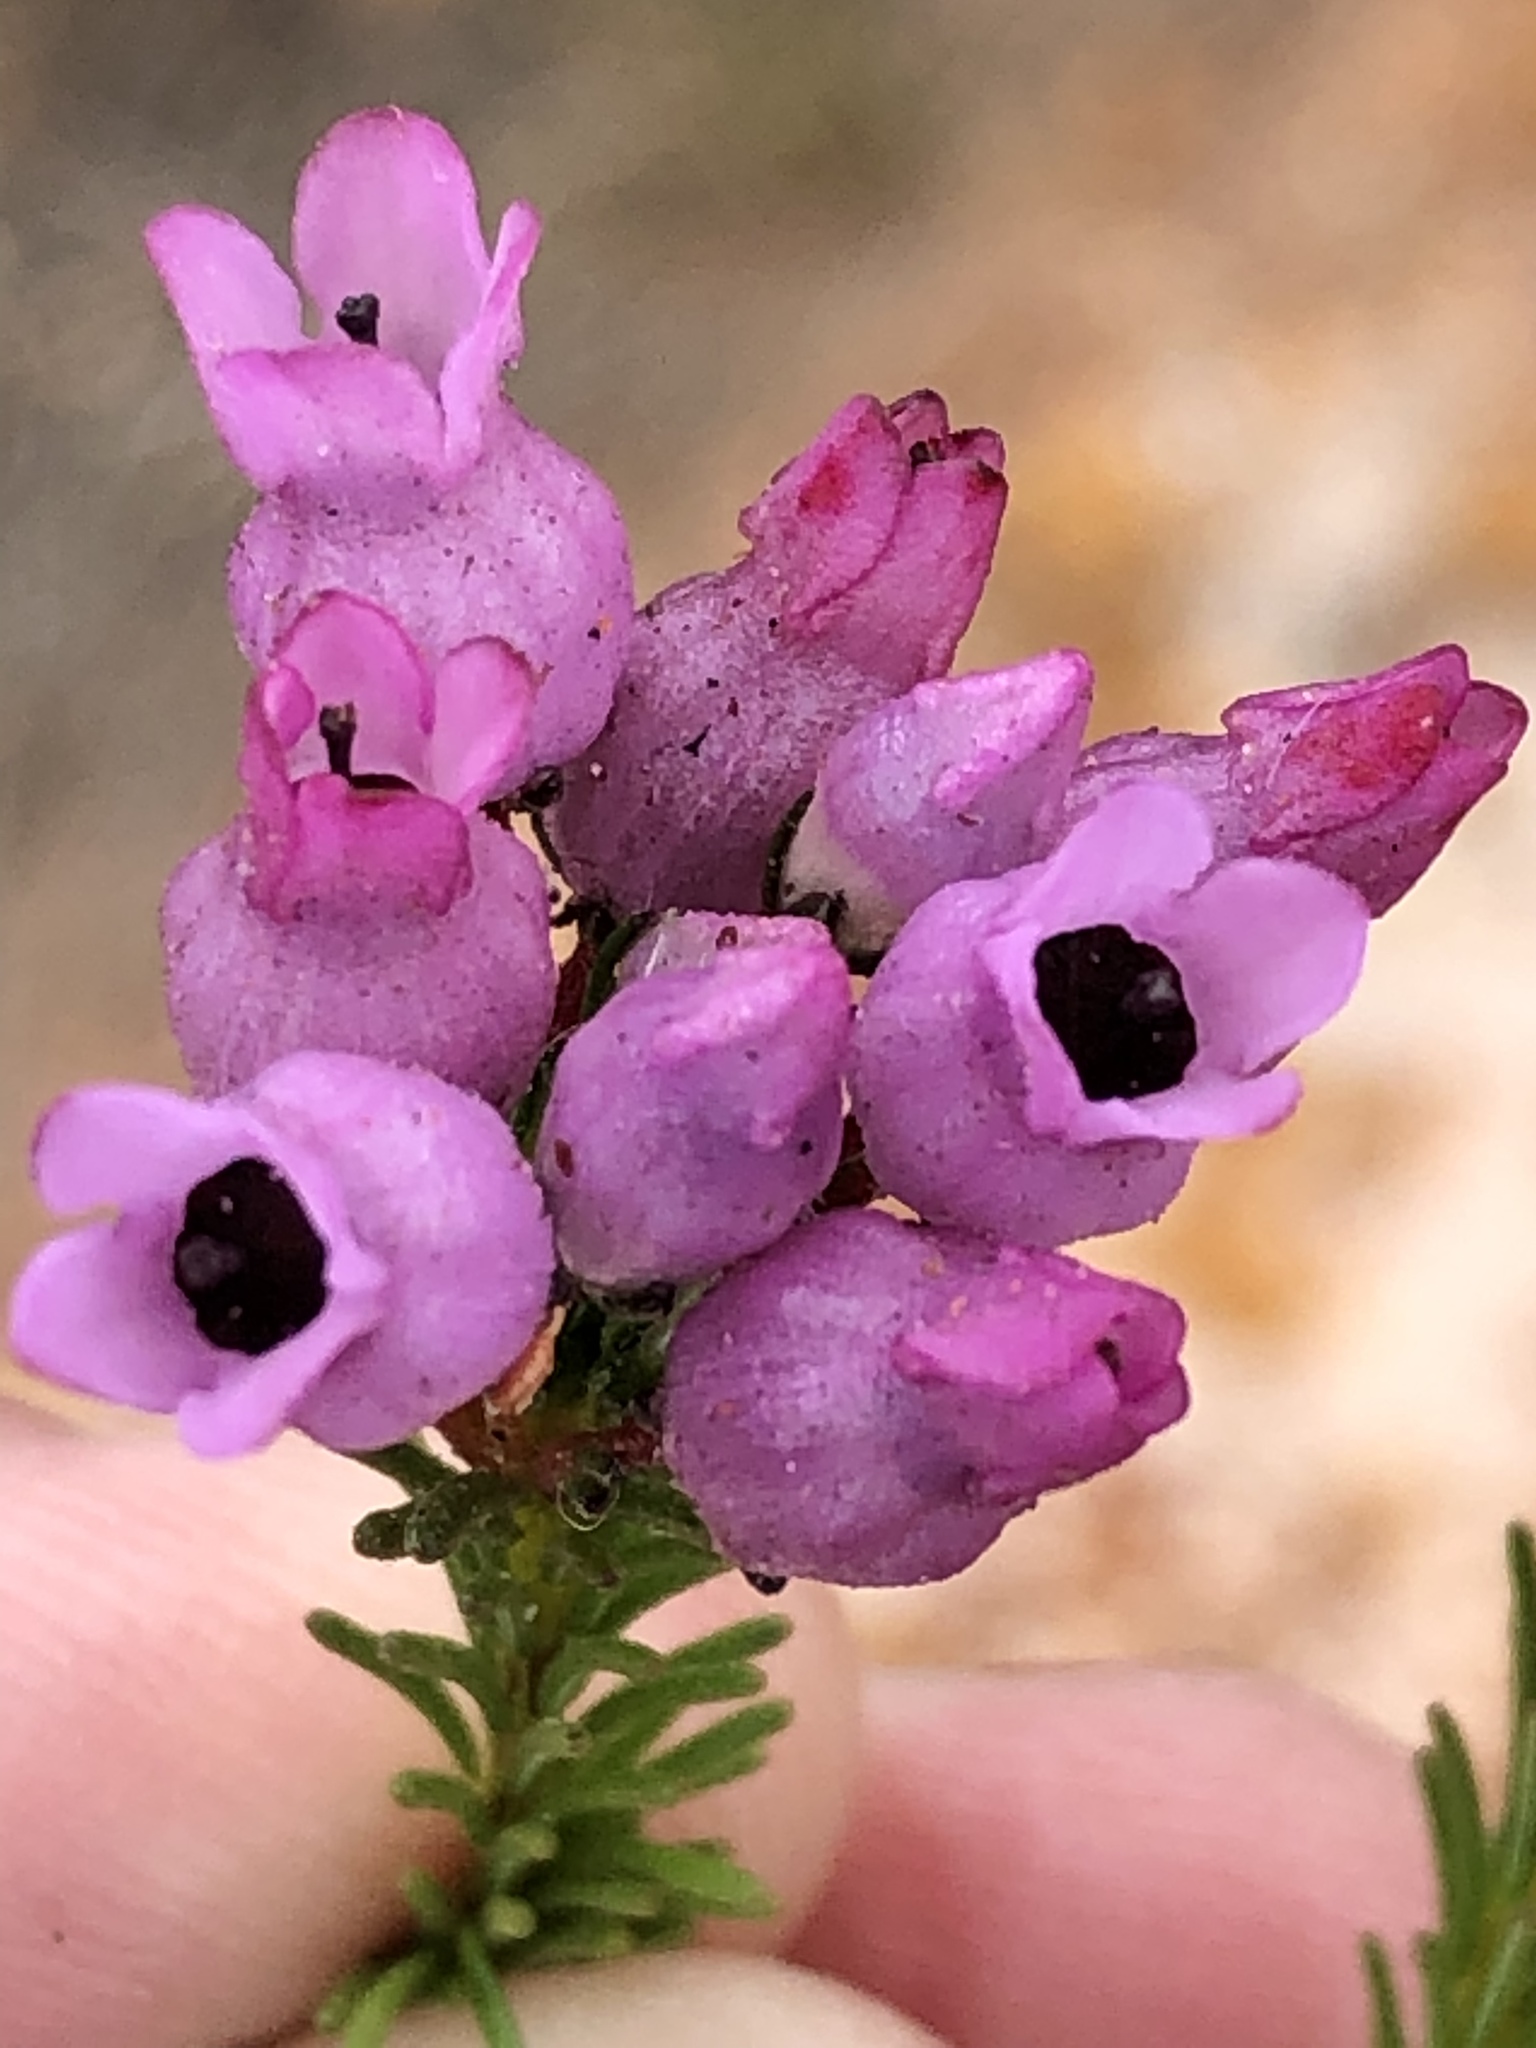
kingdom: Plantae
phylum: Tracheophyta
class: Magnoliopsida
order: Ericales
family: Ericaceae
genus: Erica
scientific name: Erica obliqua
